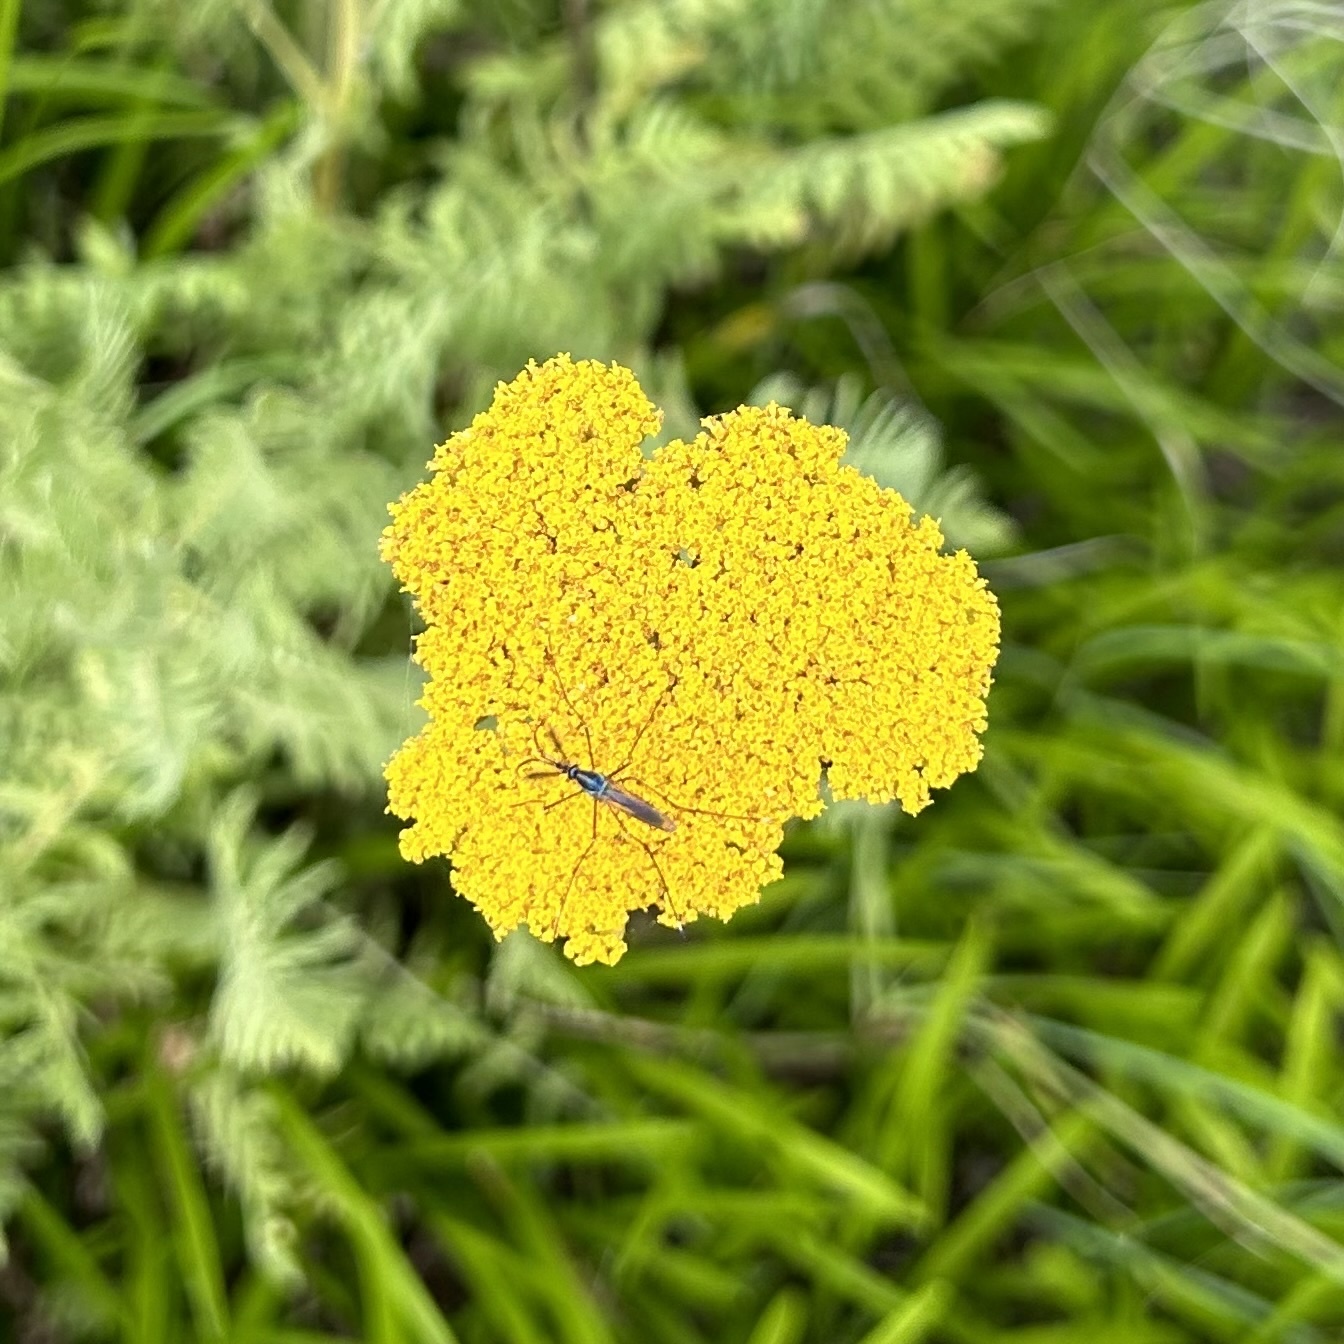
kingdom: Animalia
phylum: Arthropoda
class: Insecta
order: Diptera
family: Culicidae
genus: Toxorhynchites
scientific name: Toxorhynchites rutilus
